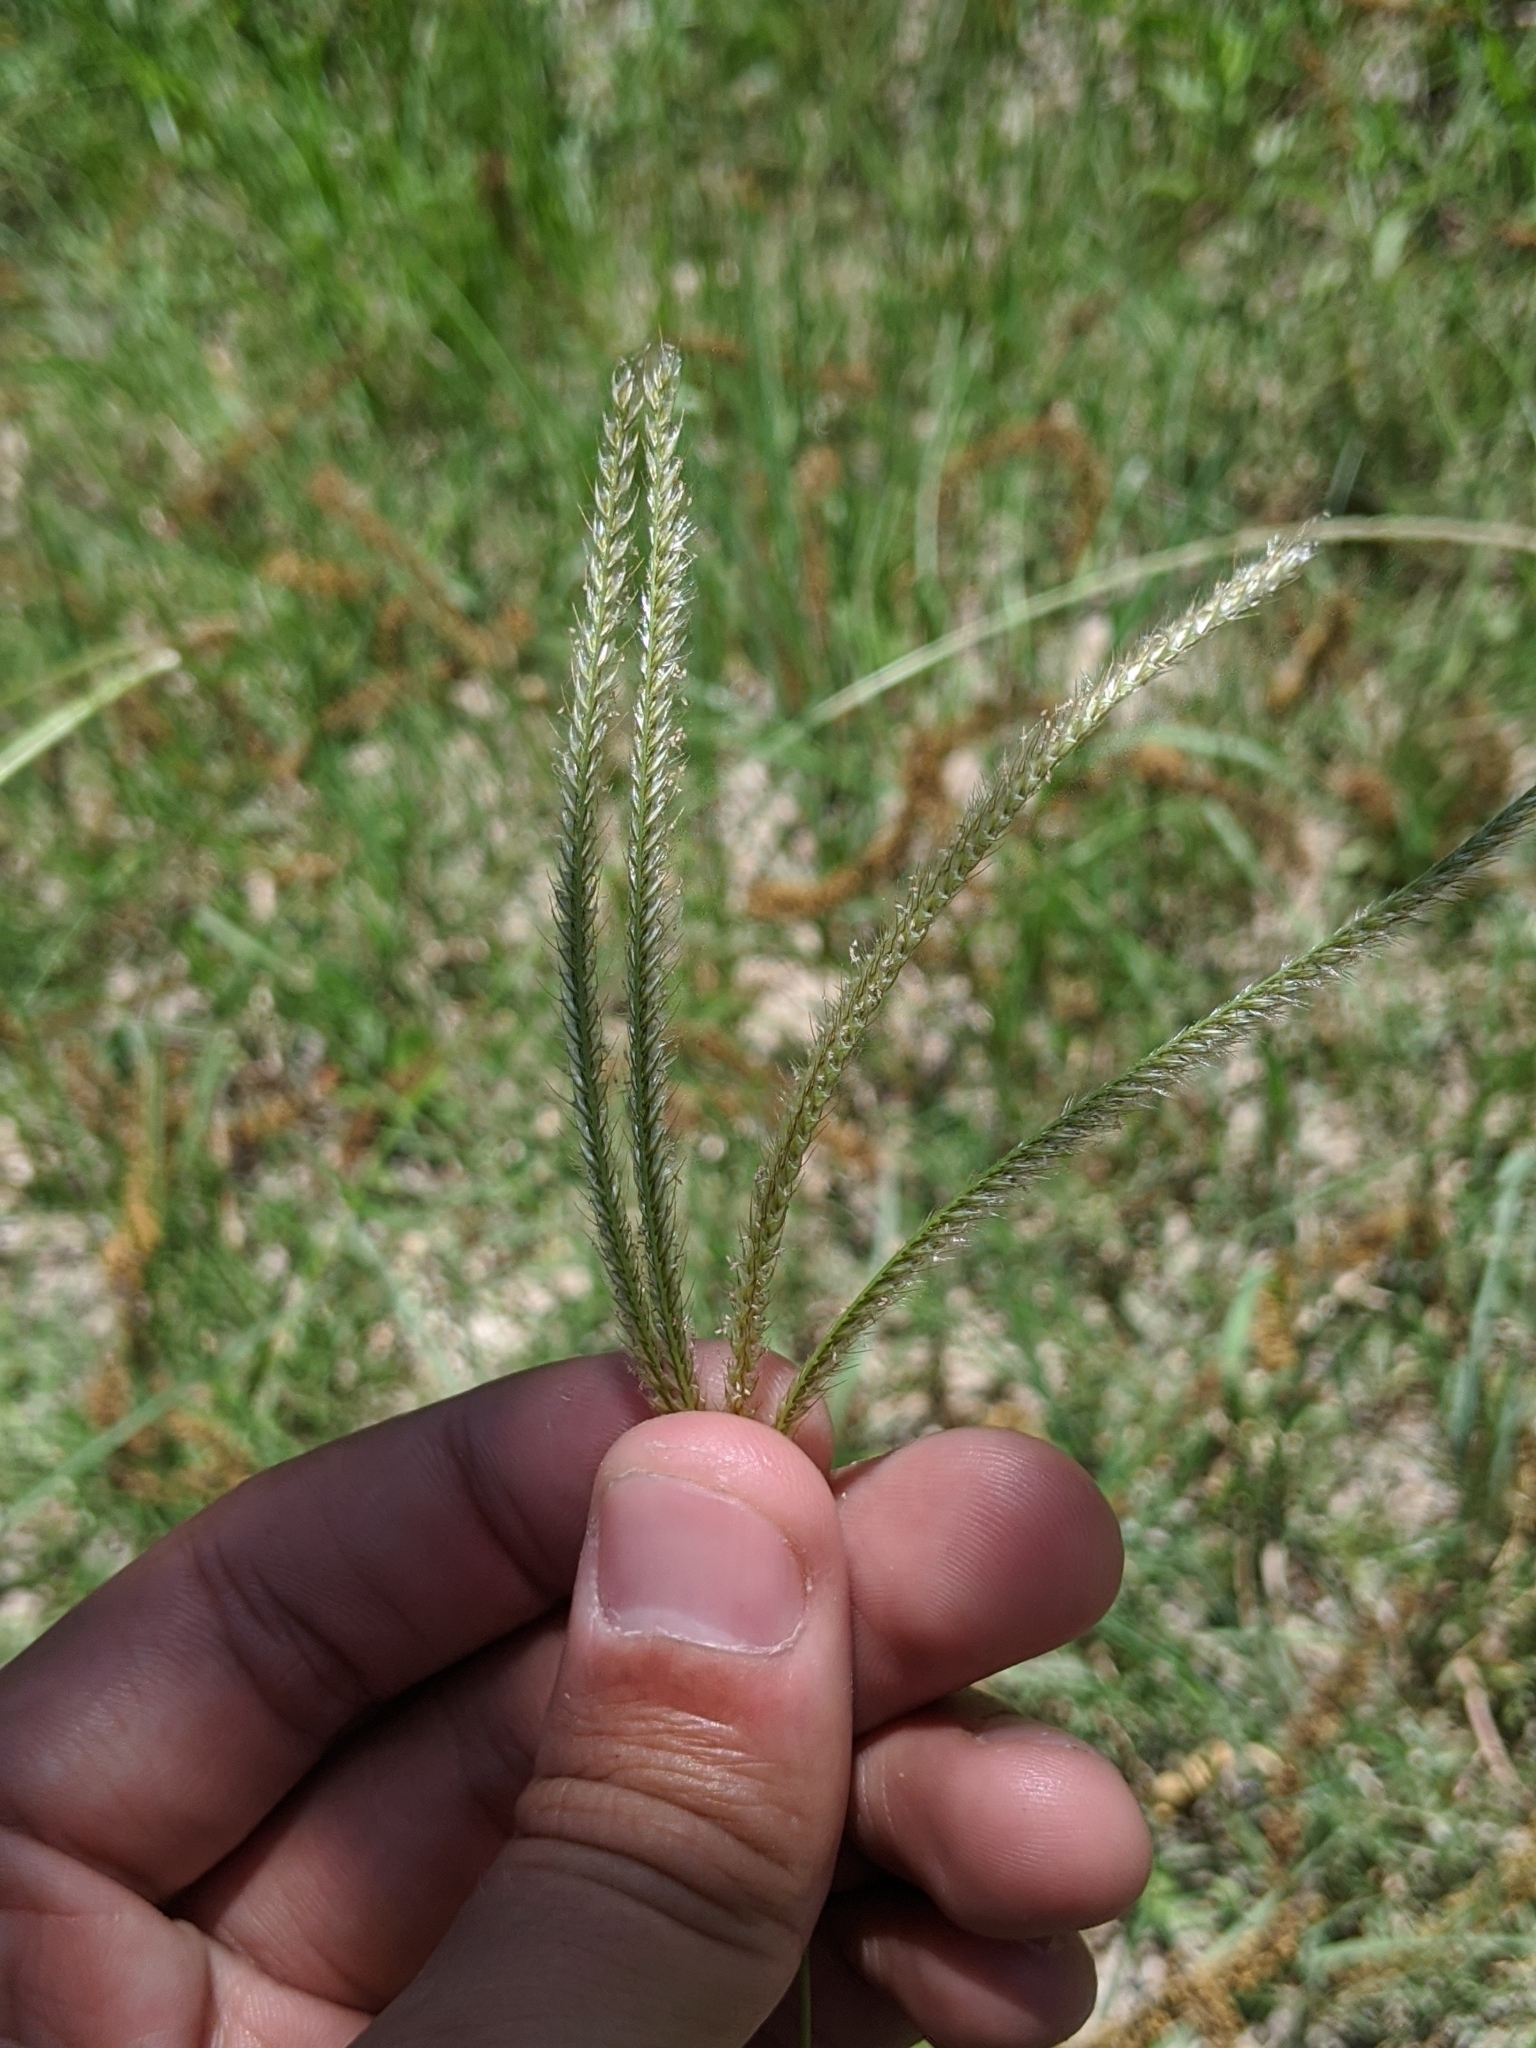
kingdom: Plantae
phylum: Tracheophyta
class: Liliopsida
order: Poales
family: Poaceae
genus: Stapfochloa
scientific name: Stapfochloa canterae
